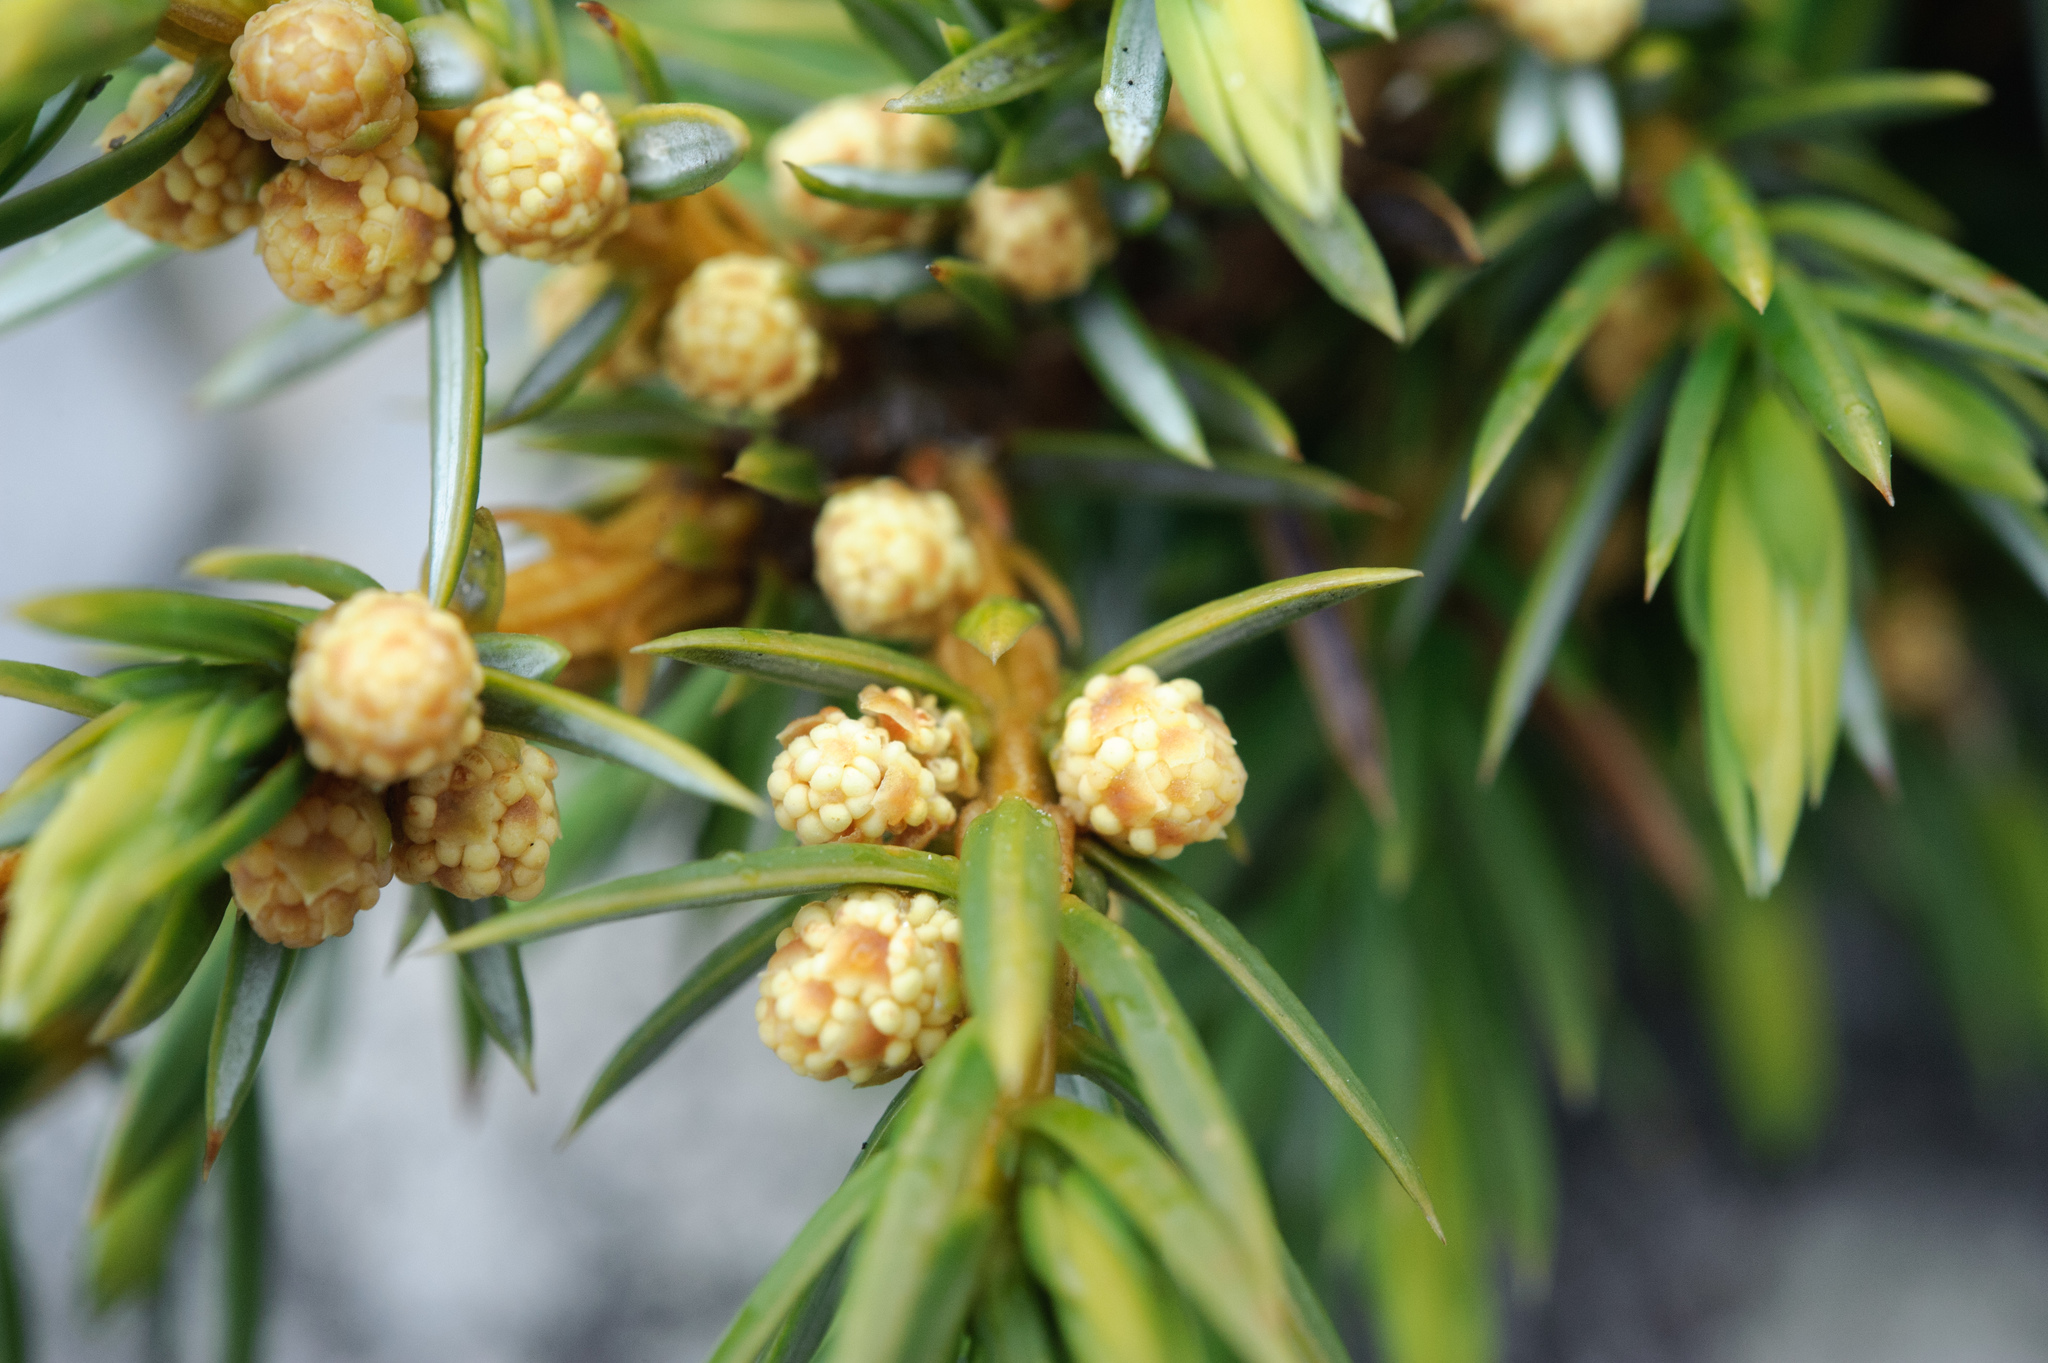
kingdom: Plantae
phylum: Tracheophyta
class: Pinopsida
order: Pinales
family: Cupressaceae
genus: Juniperus
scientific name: Juniperus formosana
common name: Formosan juniper
